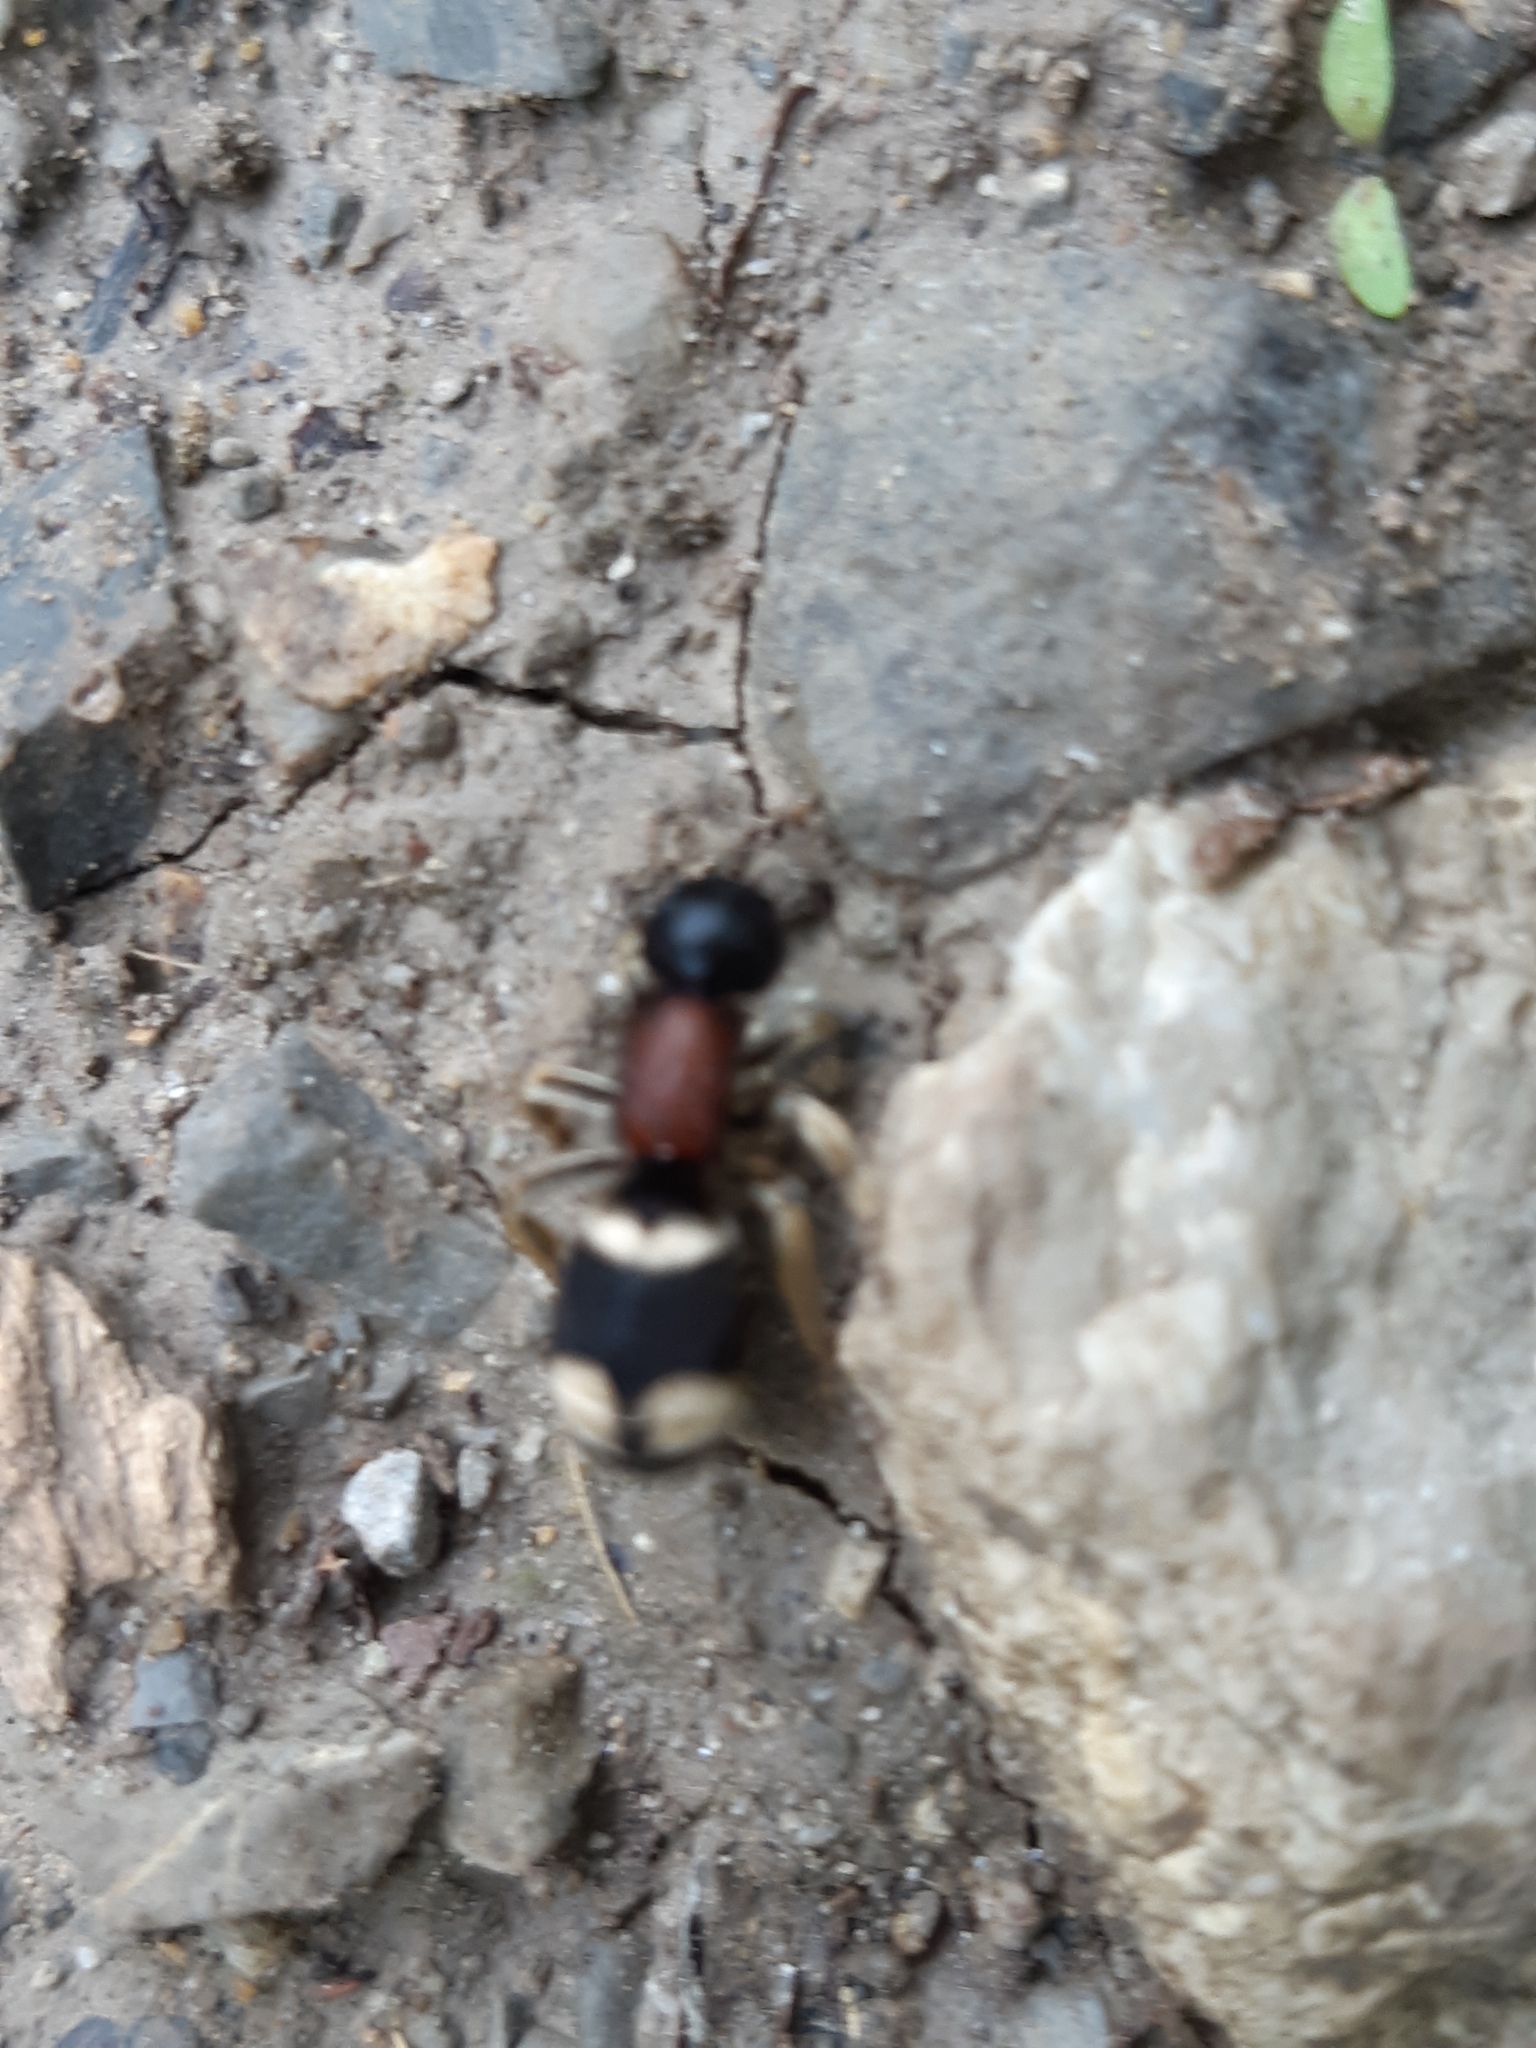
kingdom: Animalia
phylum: Arthropoda
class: Insecta
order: Hymenoptera
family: Mutillidae
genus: Mutilla
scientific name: Mutilla marginata
